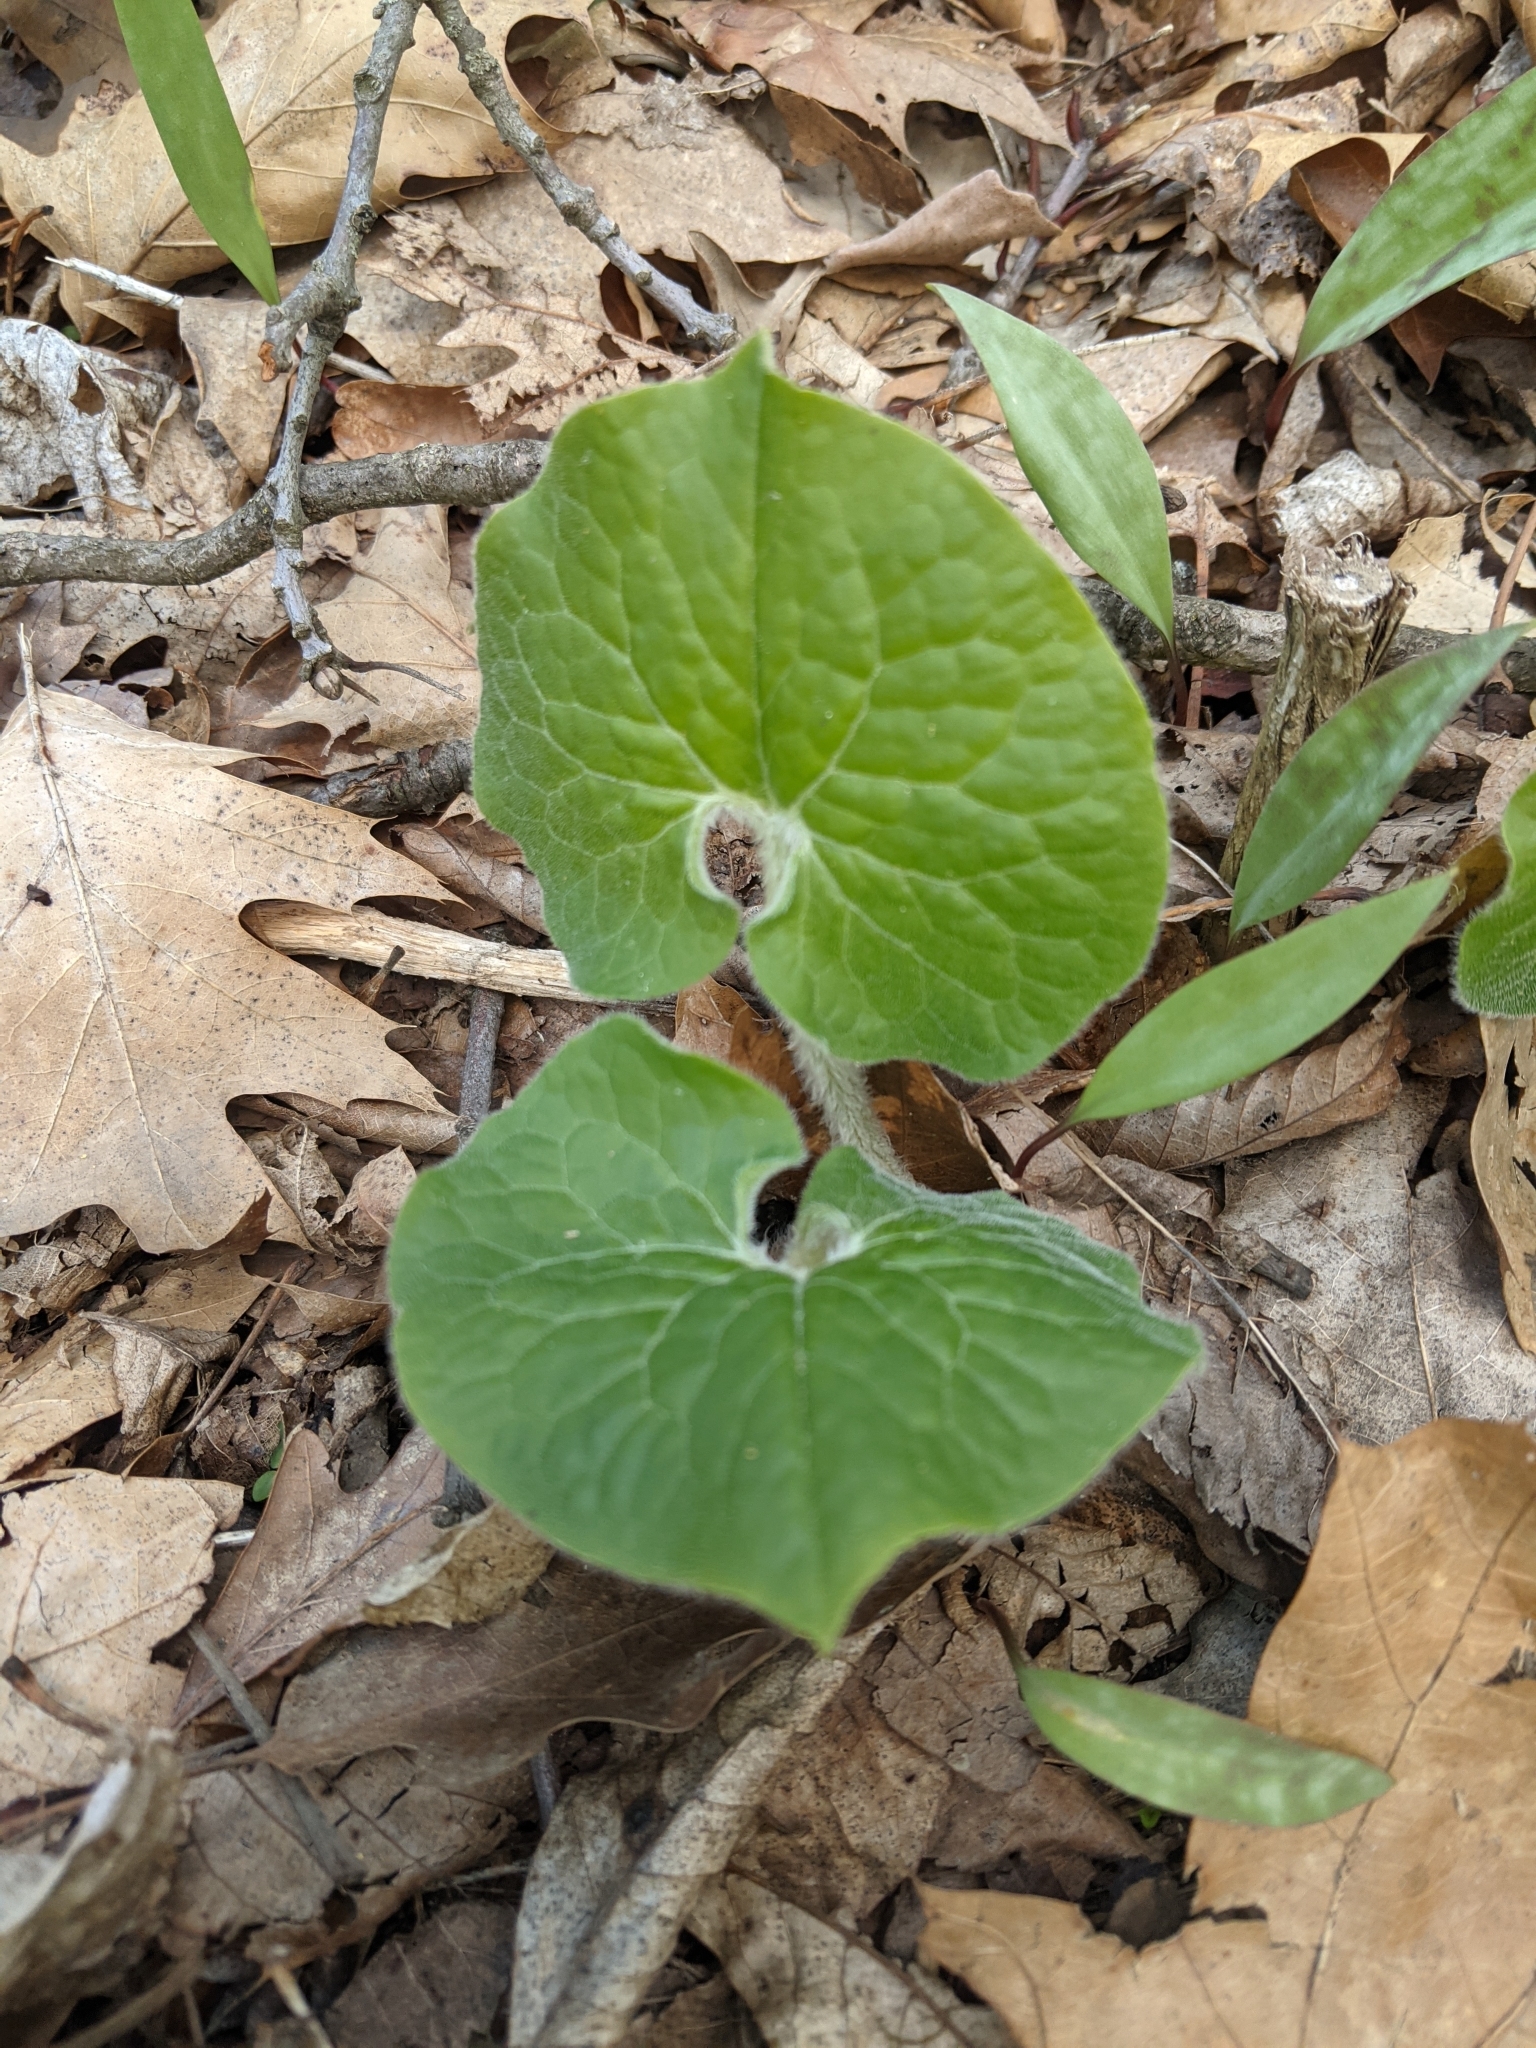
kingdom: Plantae
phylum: Tracheophyta
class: Magnoliopsida
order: Piperales
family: Aristolochiaceae
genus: Asarum
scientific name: Asarum canadense
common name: Wild ginger
